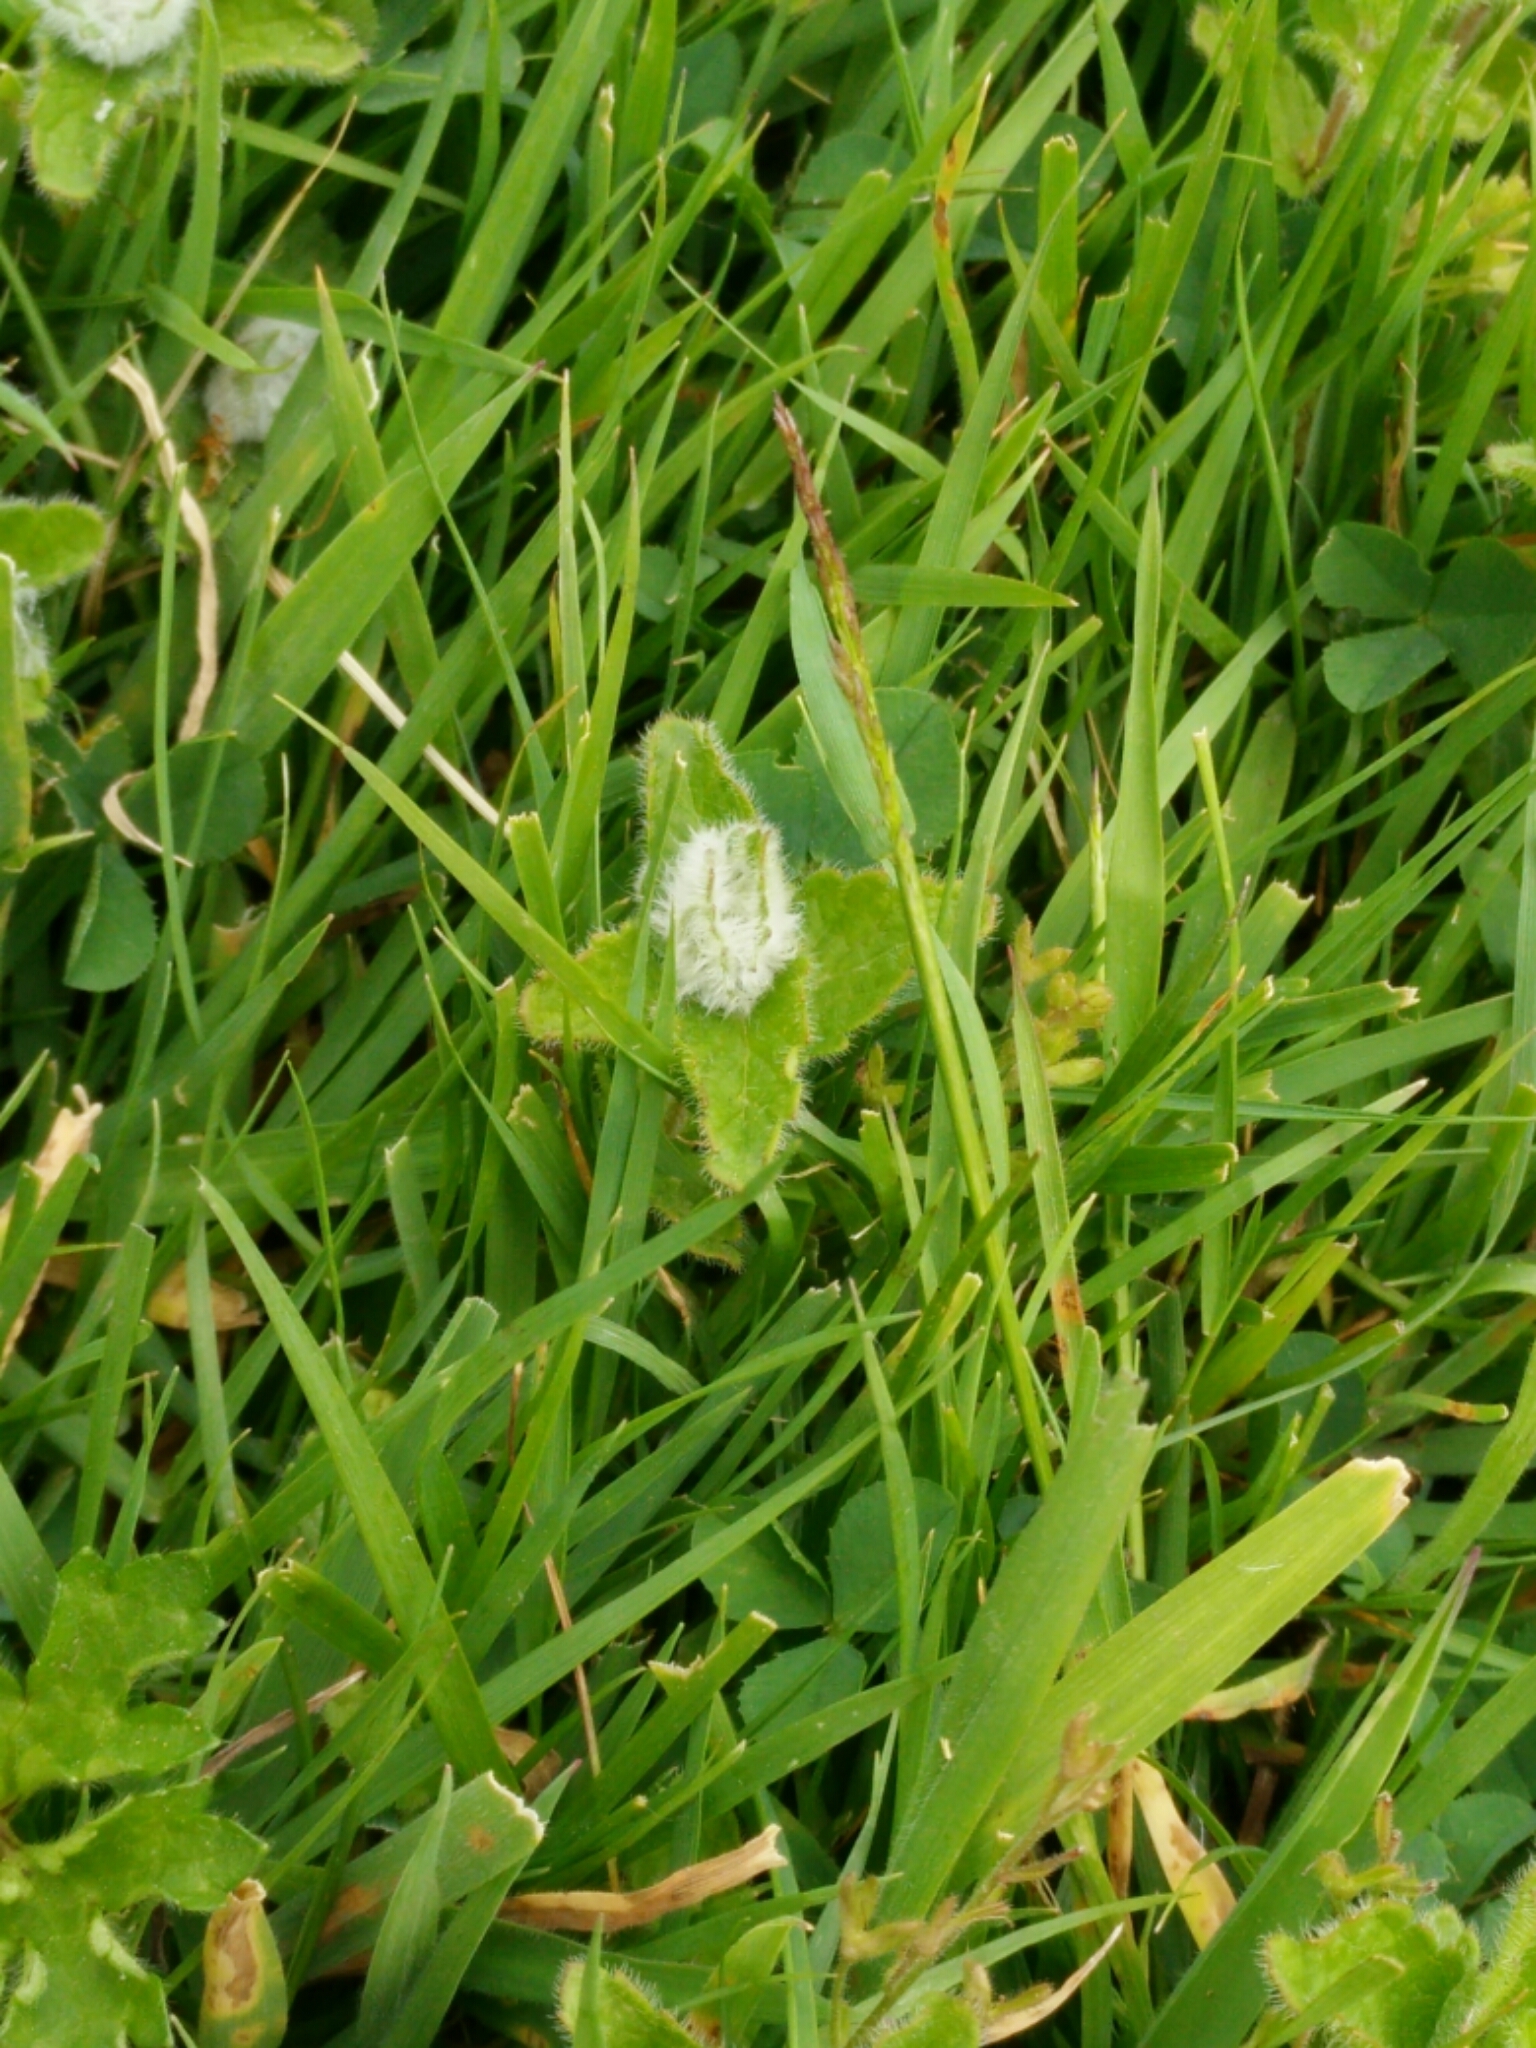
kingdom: Animalia
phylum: Arthropoda
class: Insecta
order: Diptera
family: Cecidomyiidae
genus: Jaapiella
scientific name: Jaapiella veronicae
